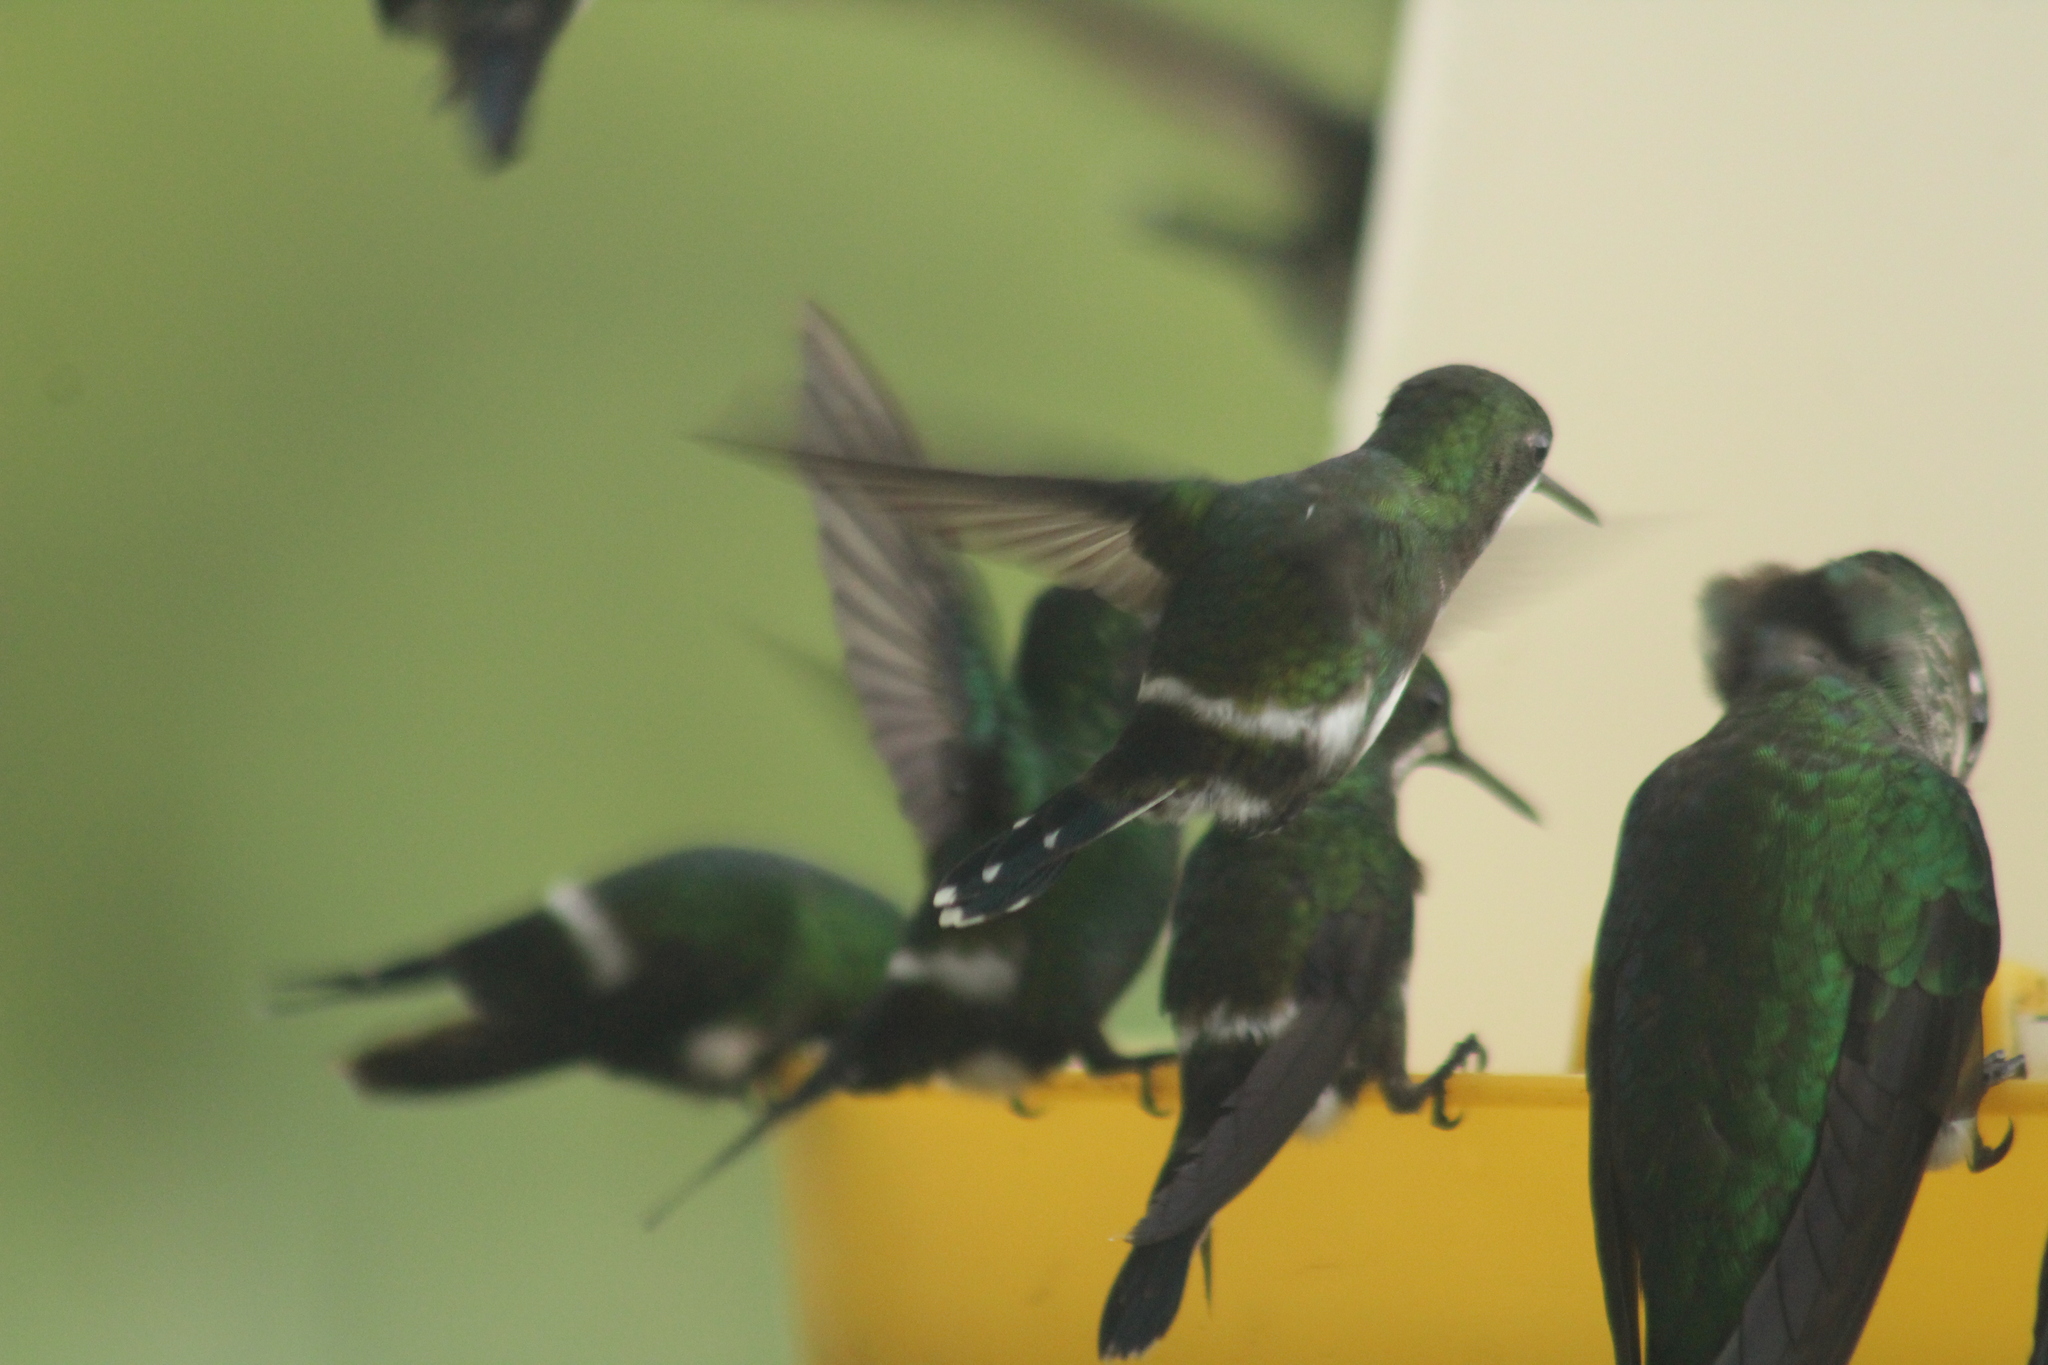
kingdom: Animalia
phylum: Chordata
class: Aves
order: Apodiformes
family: Trochilidae
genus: Discosura
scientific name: Discosura conversii
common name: Green thorntail
